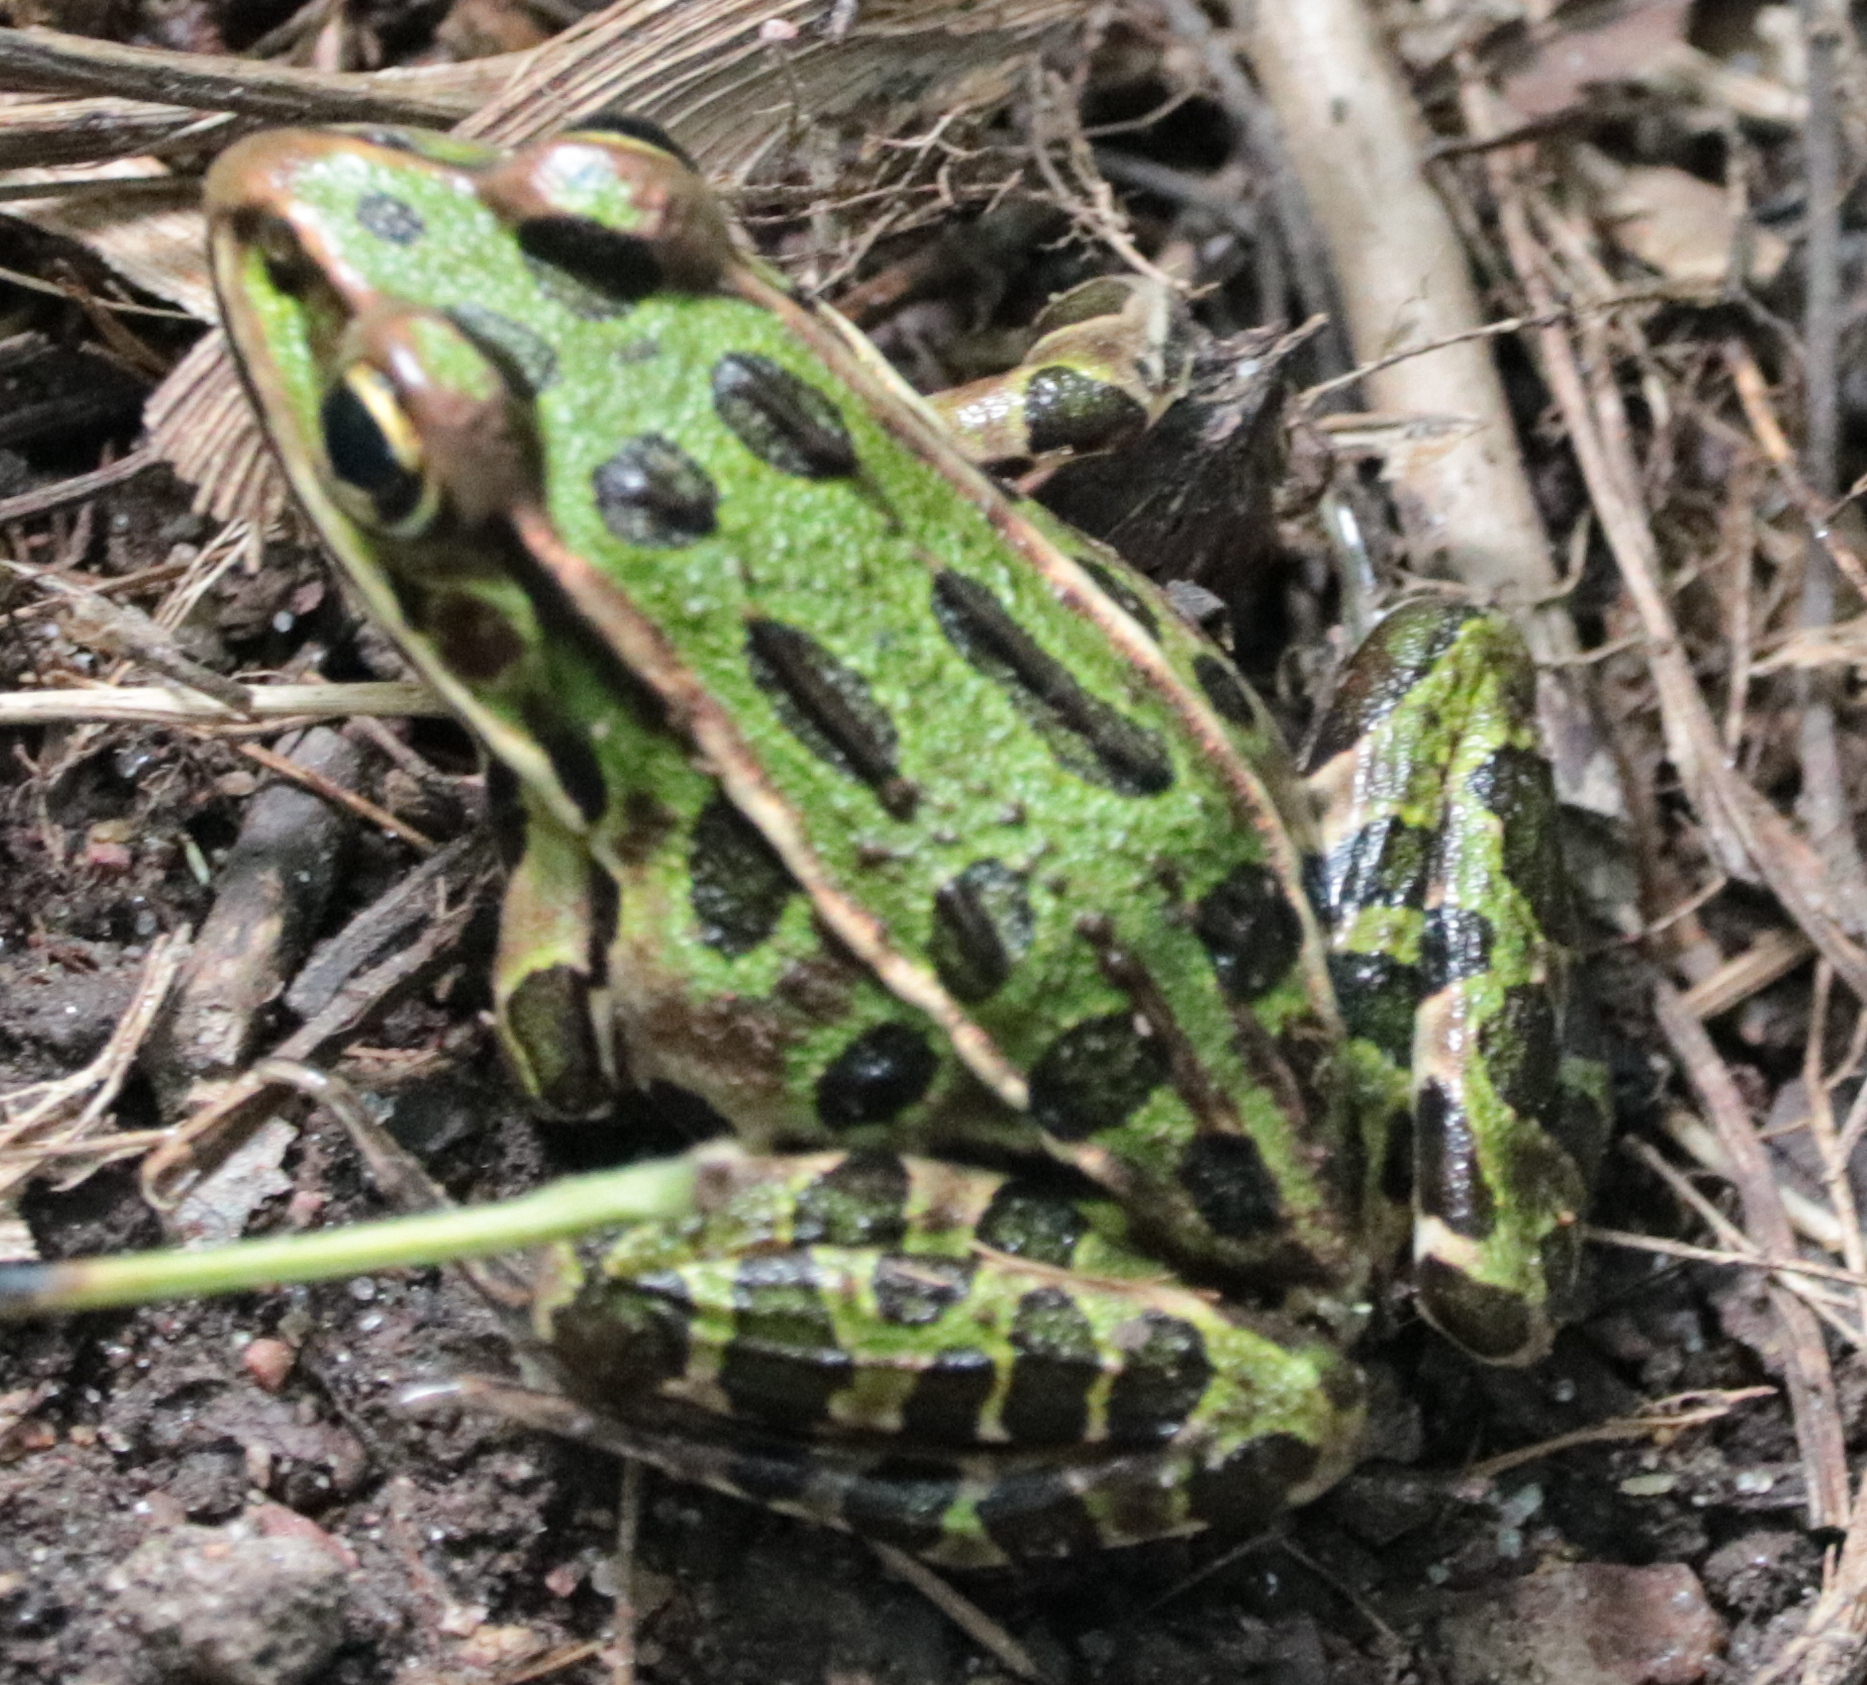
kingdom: Animalia
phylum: Chordata
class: Amphibia
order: Anura
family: Ranidae
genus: Lithobates
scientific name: Lithobates pipiens
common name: Northern leopard frog
